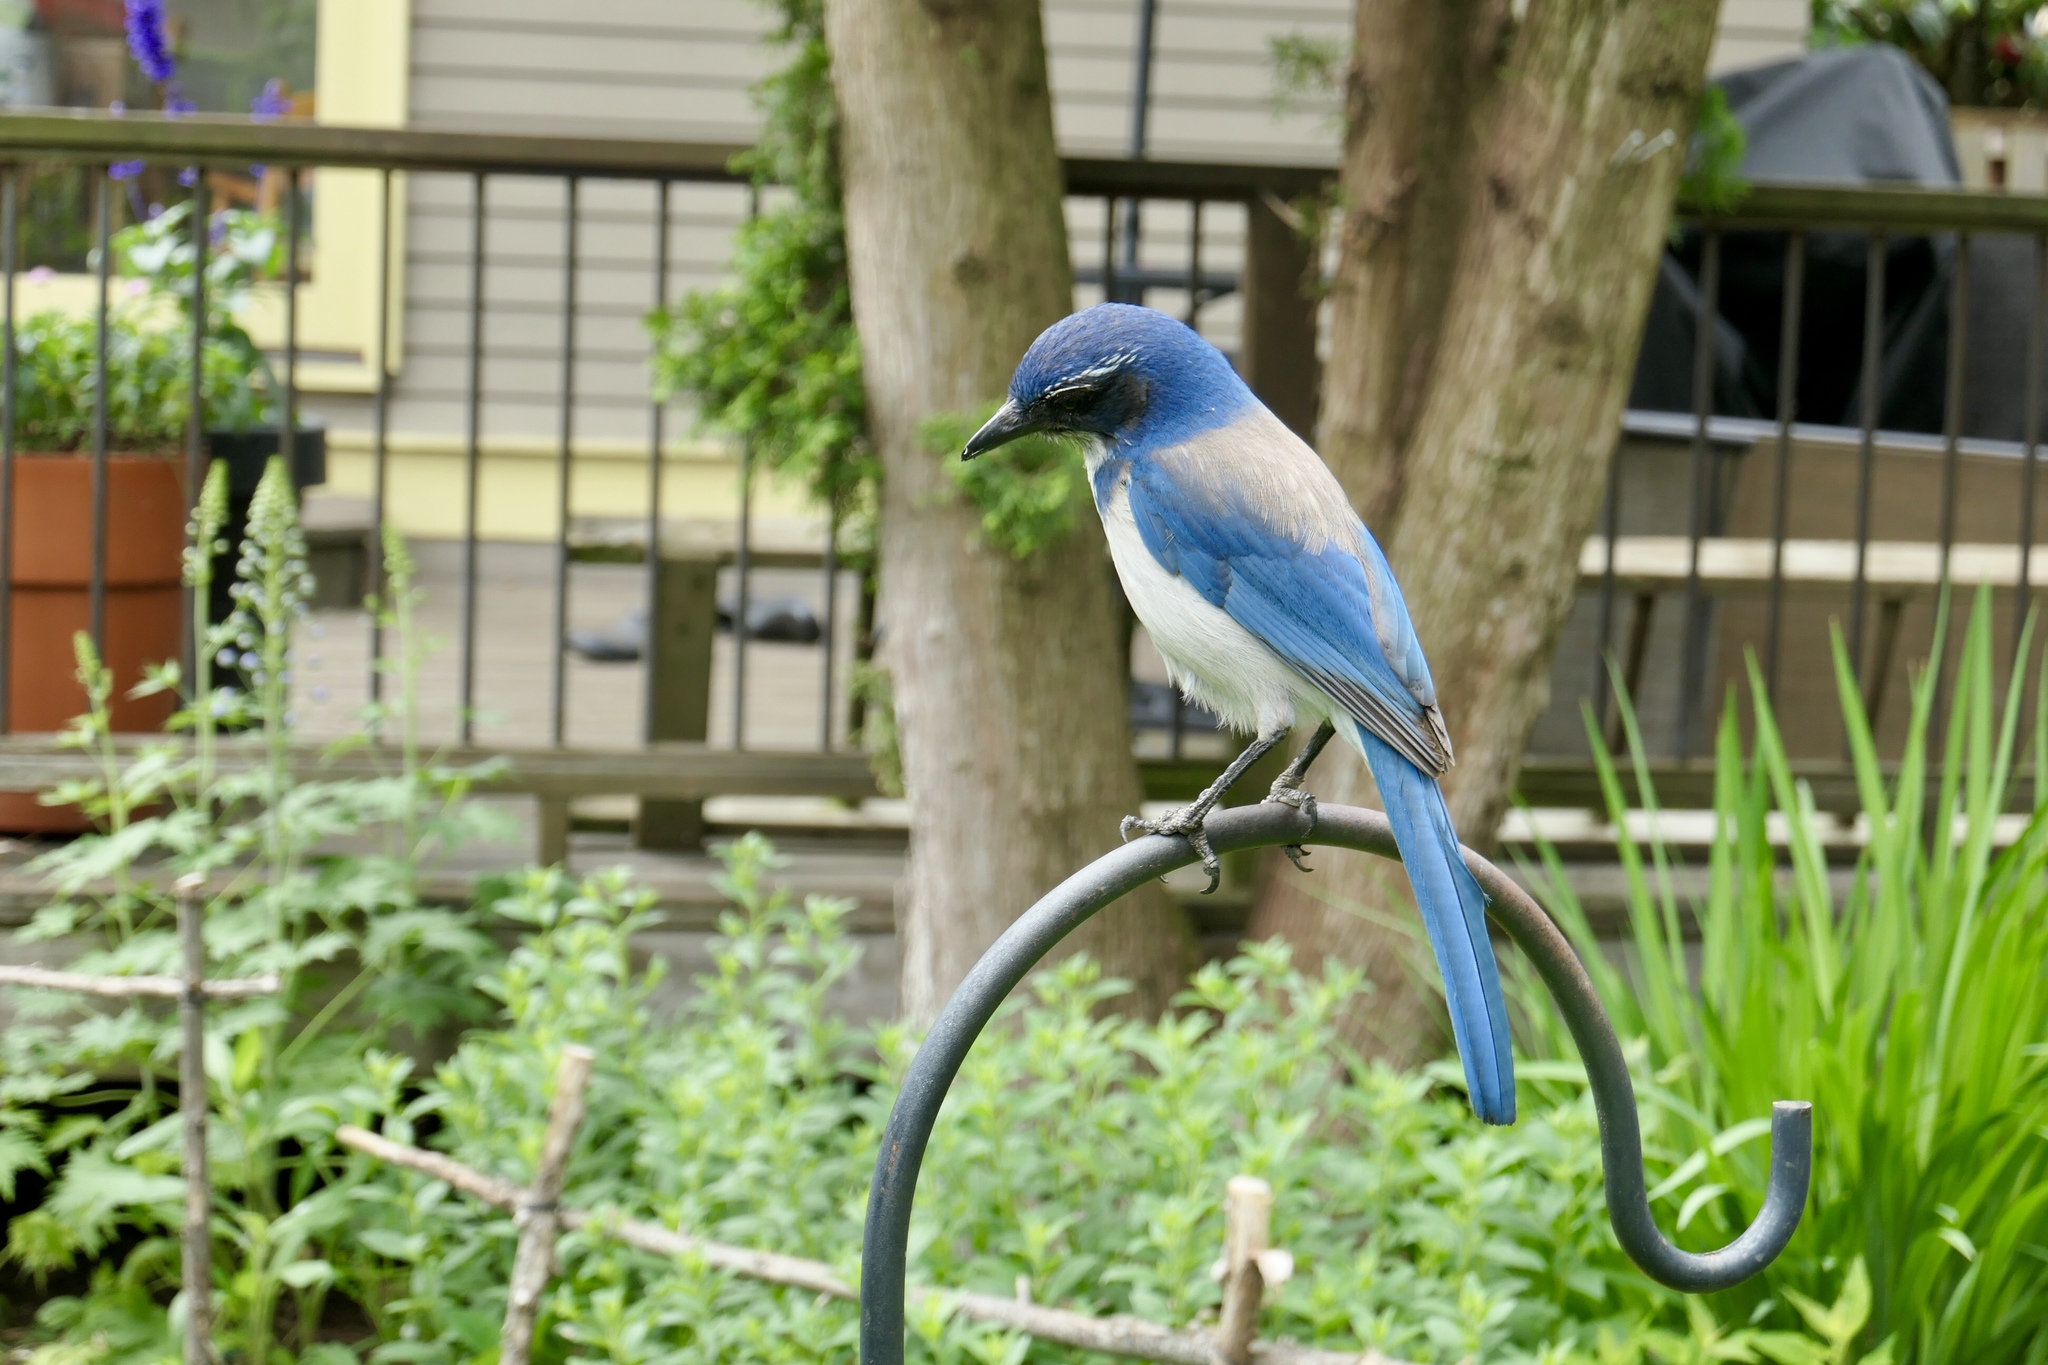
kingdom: Animalia
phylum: Chordata
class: Aves
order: Passeriformes
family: Corvidae
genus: Aphelocoma
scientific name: Aphelocoma californica
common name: California scrub-jay
